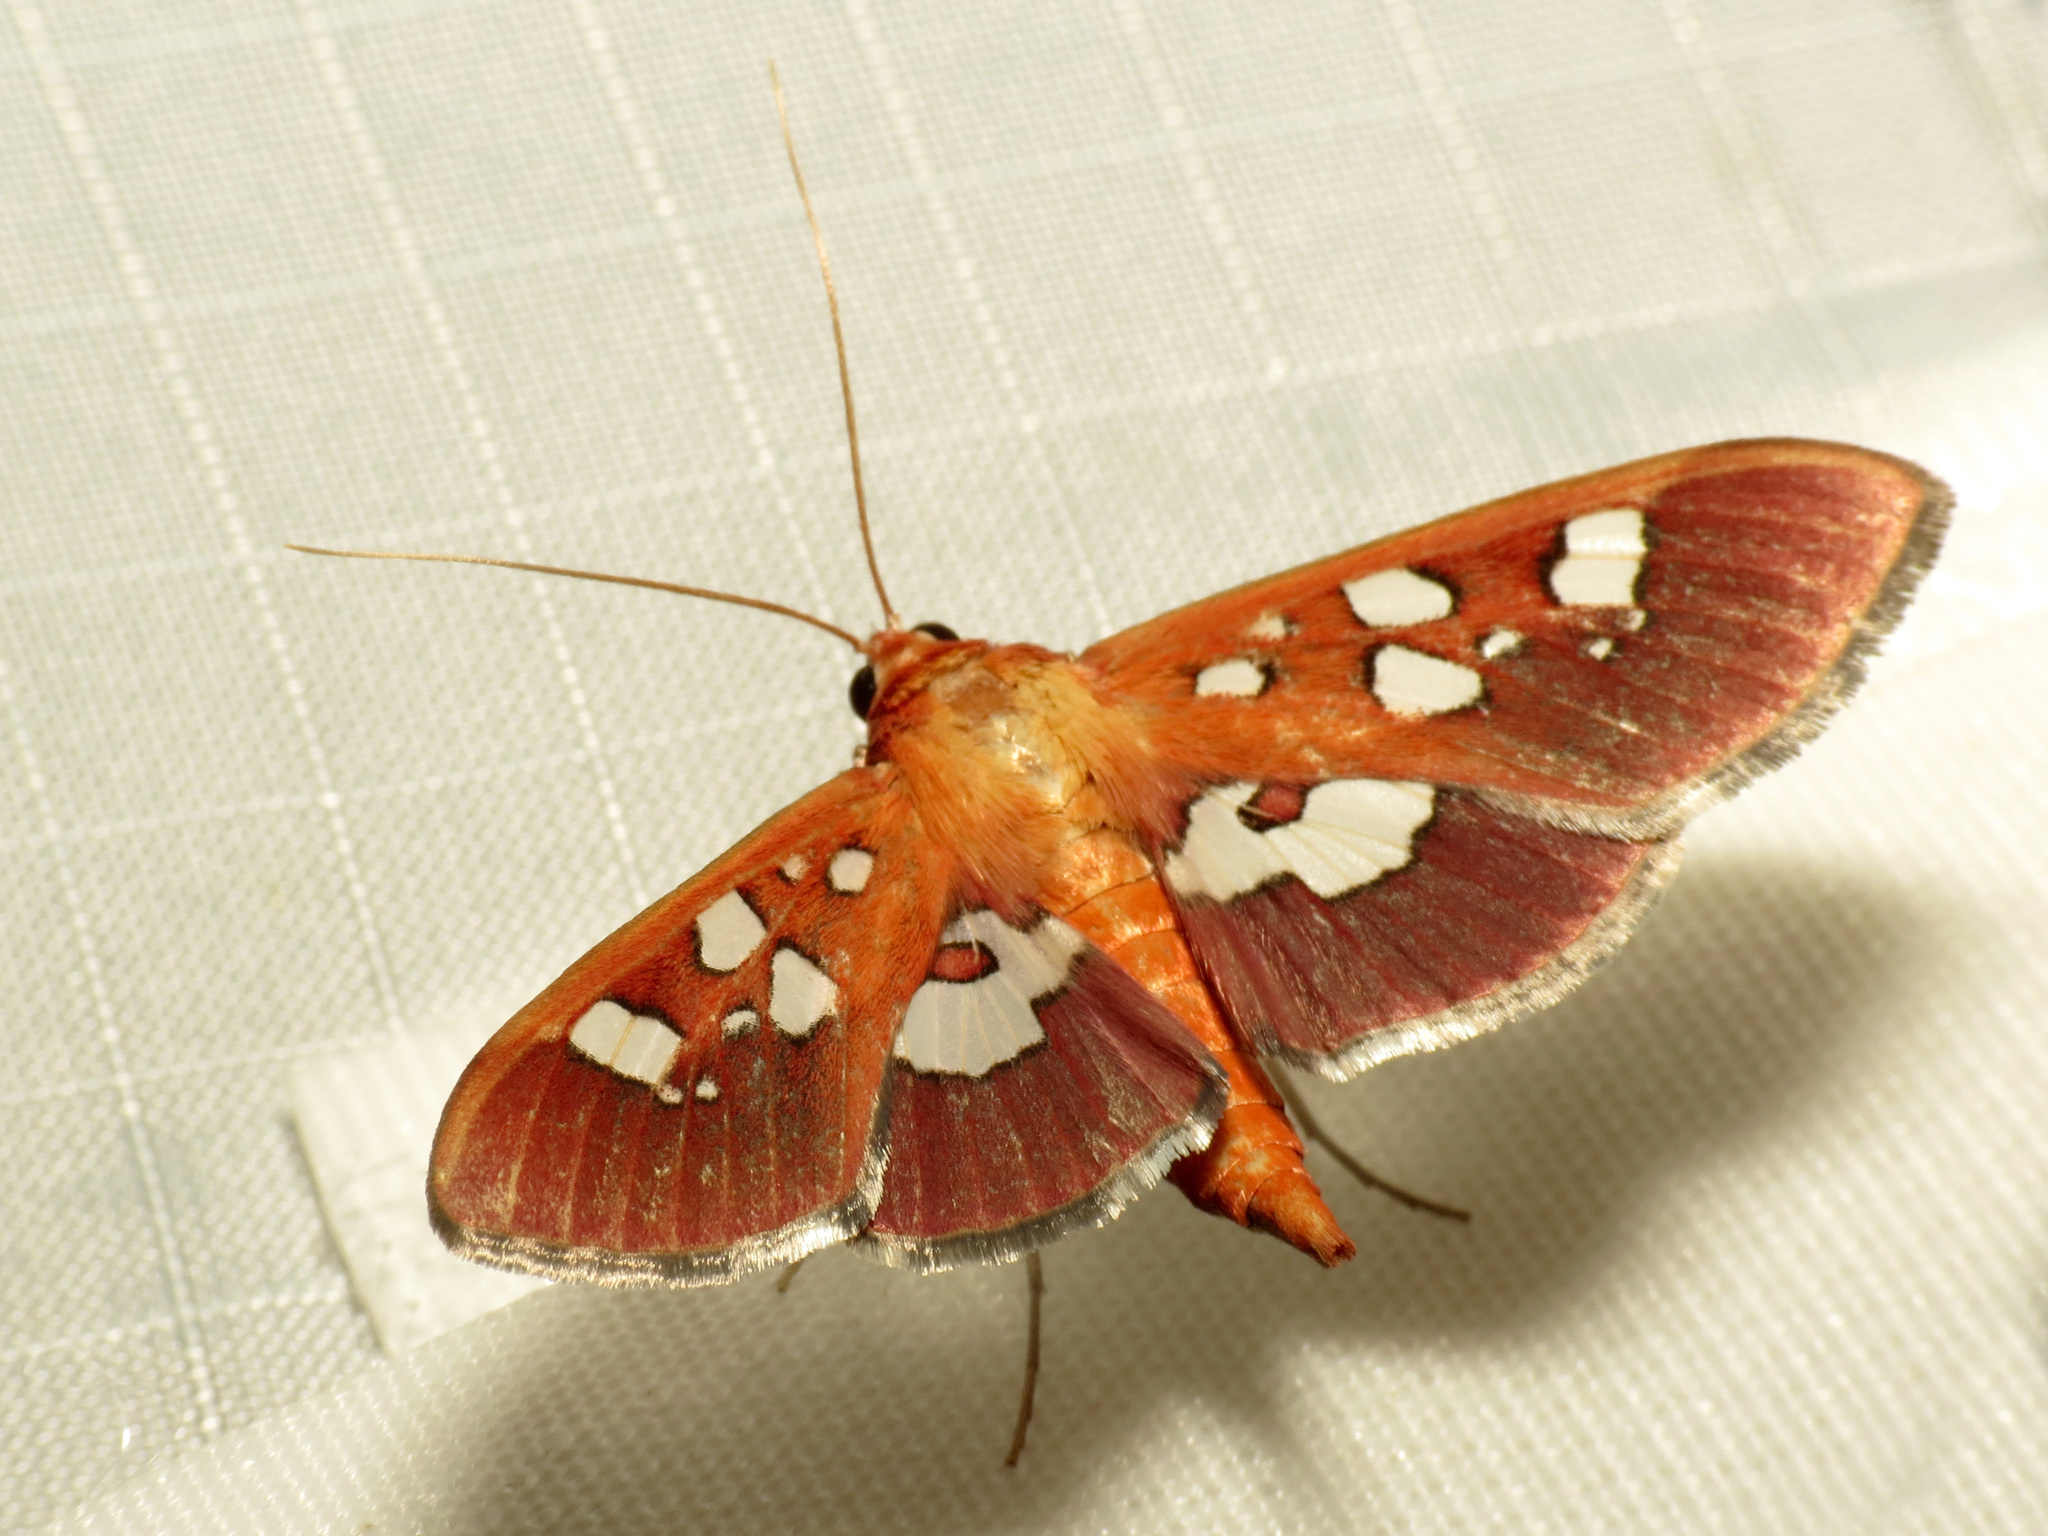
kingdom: Animalia
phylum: Arthropoda
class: Insecta
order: Lepidoptera
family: Crambidae
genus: Phostria
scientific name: Phostria tedea
